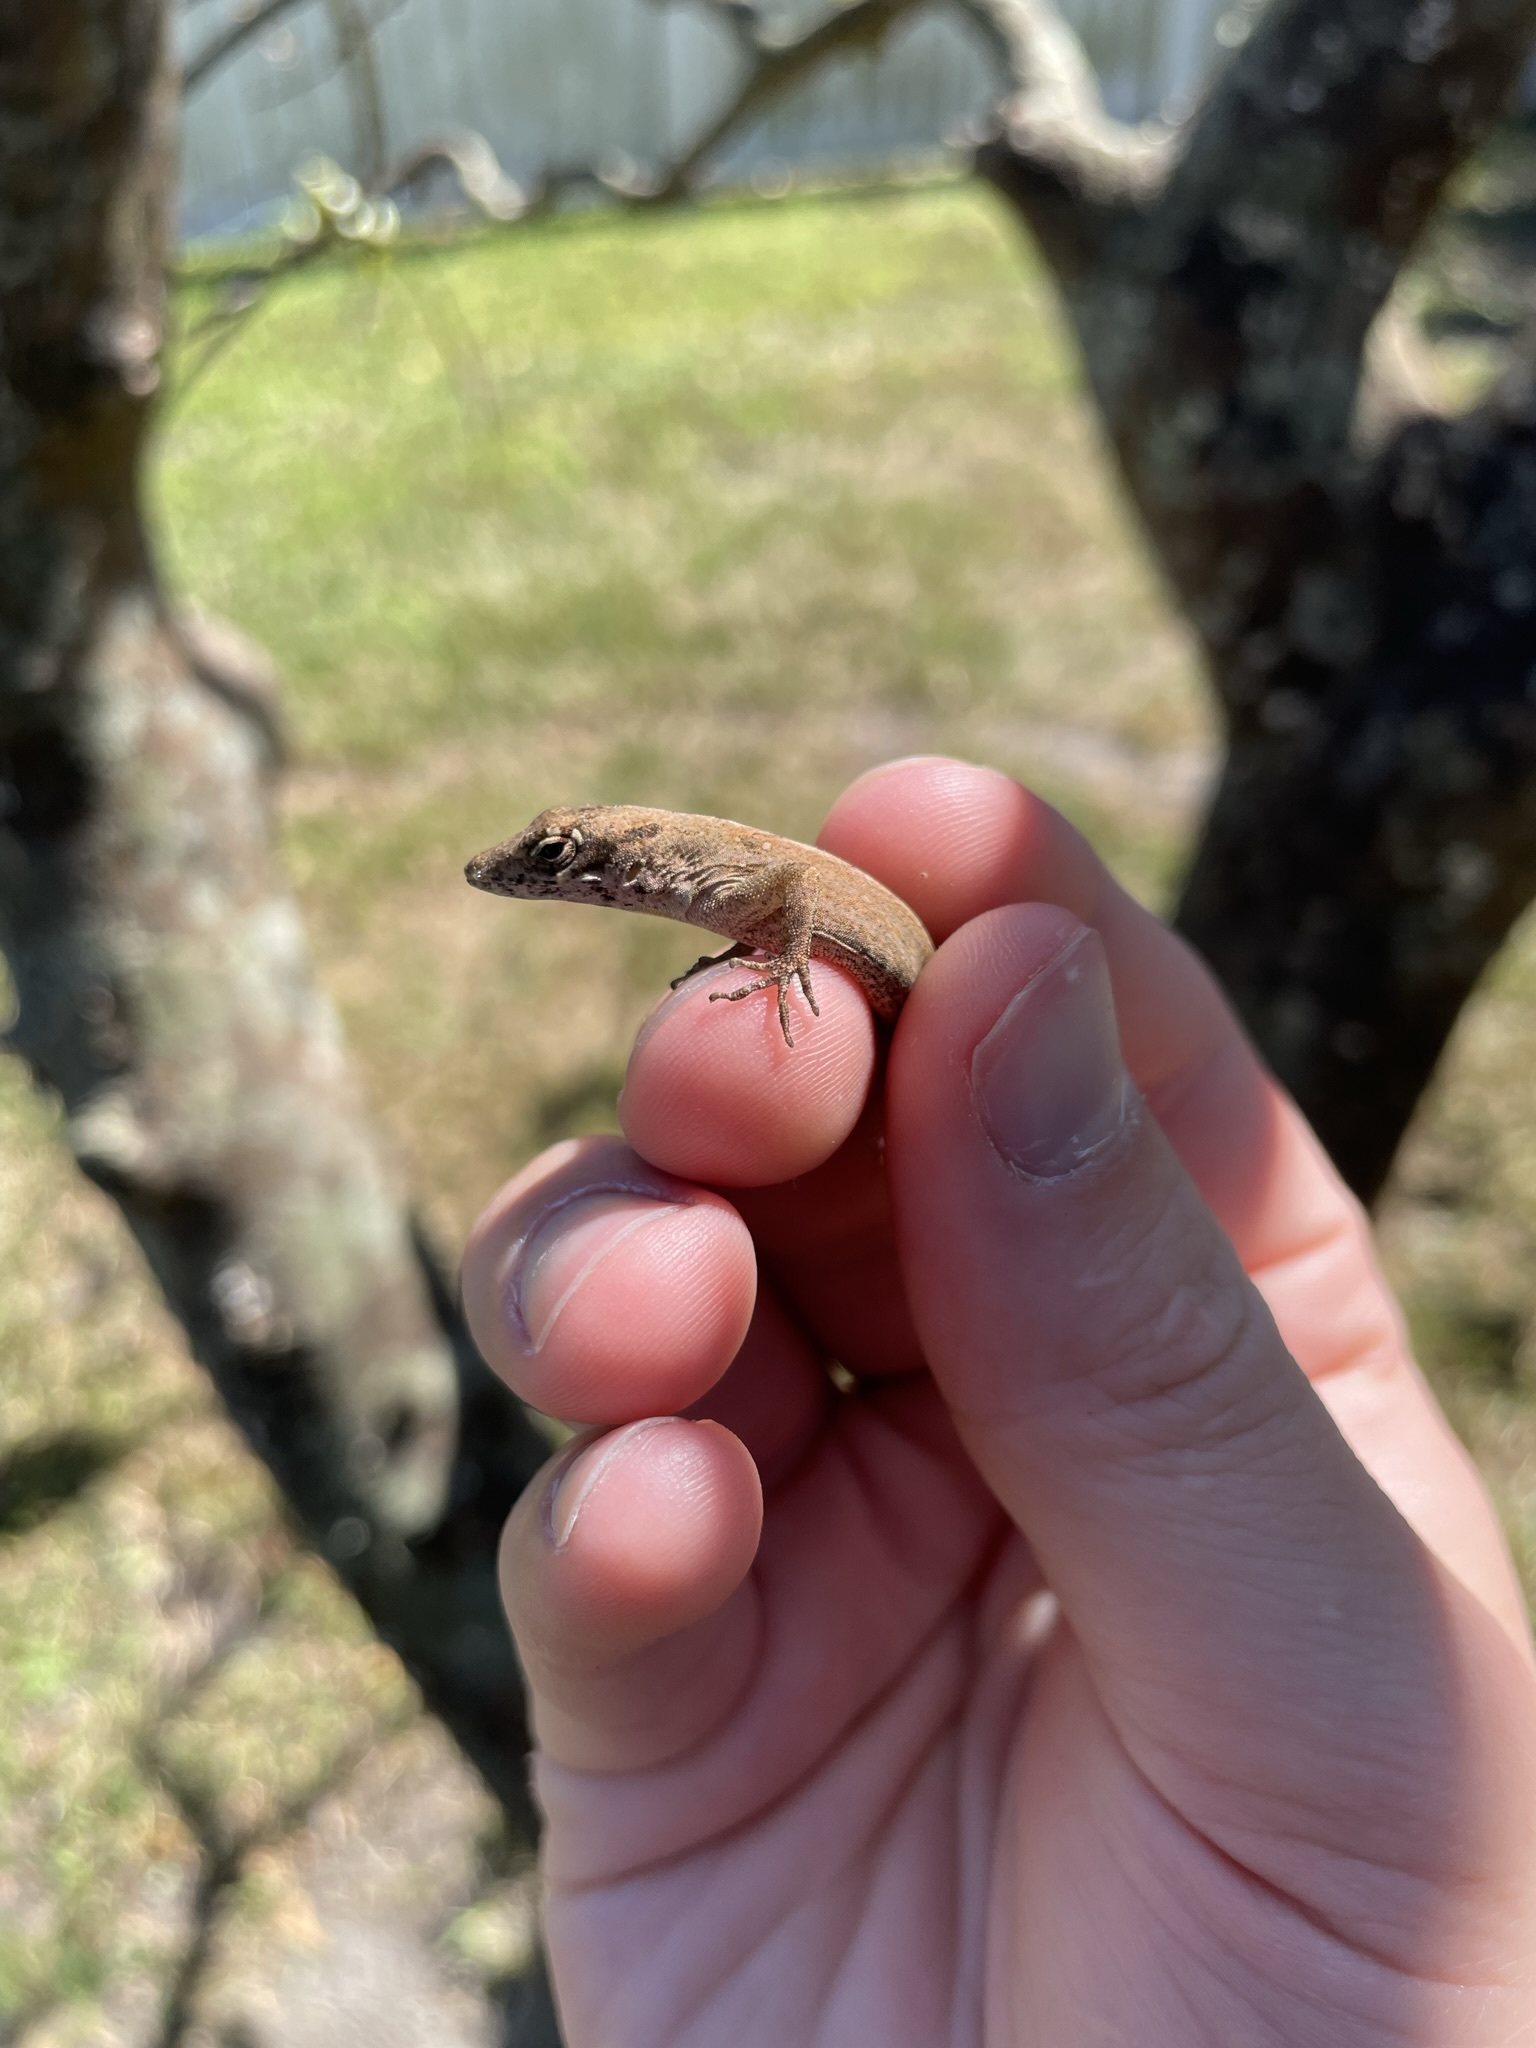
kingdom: Animalia
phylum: Chordata
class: Squamata
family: Dactyloidae
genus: Anolis
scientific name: Anolis sagrei
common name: Brown anole
